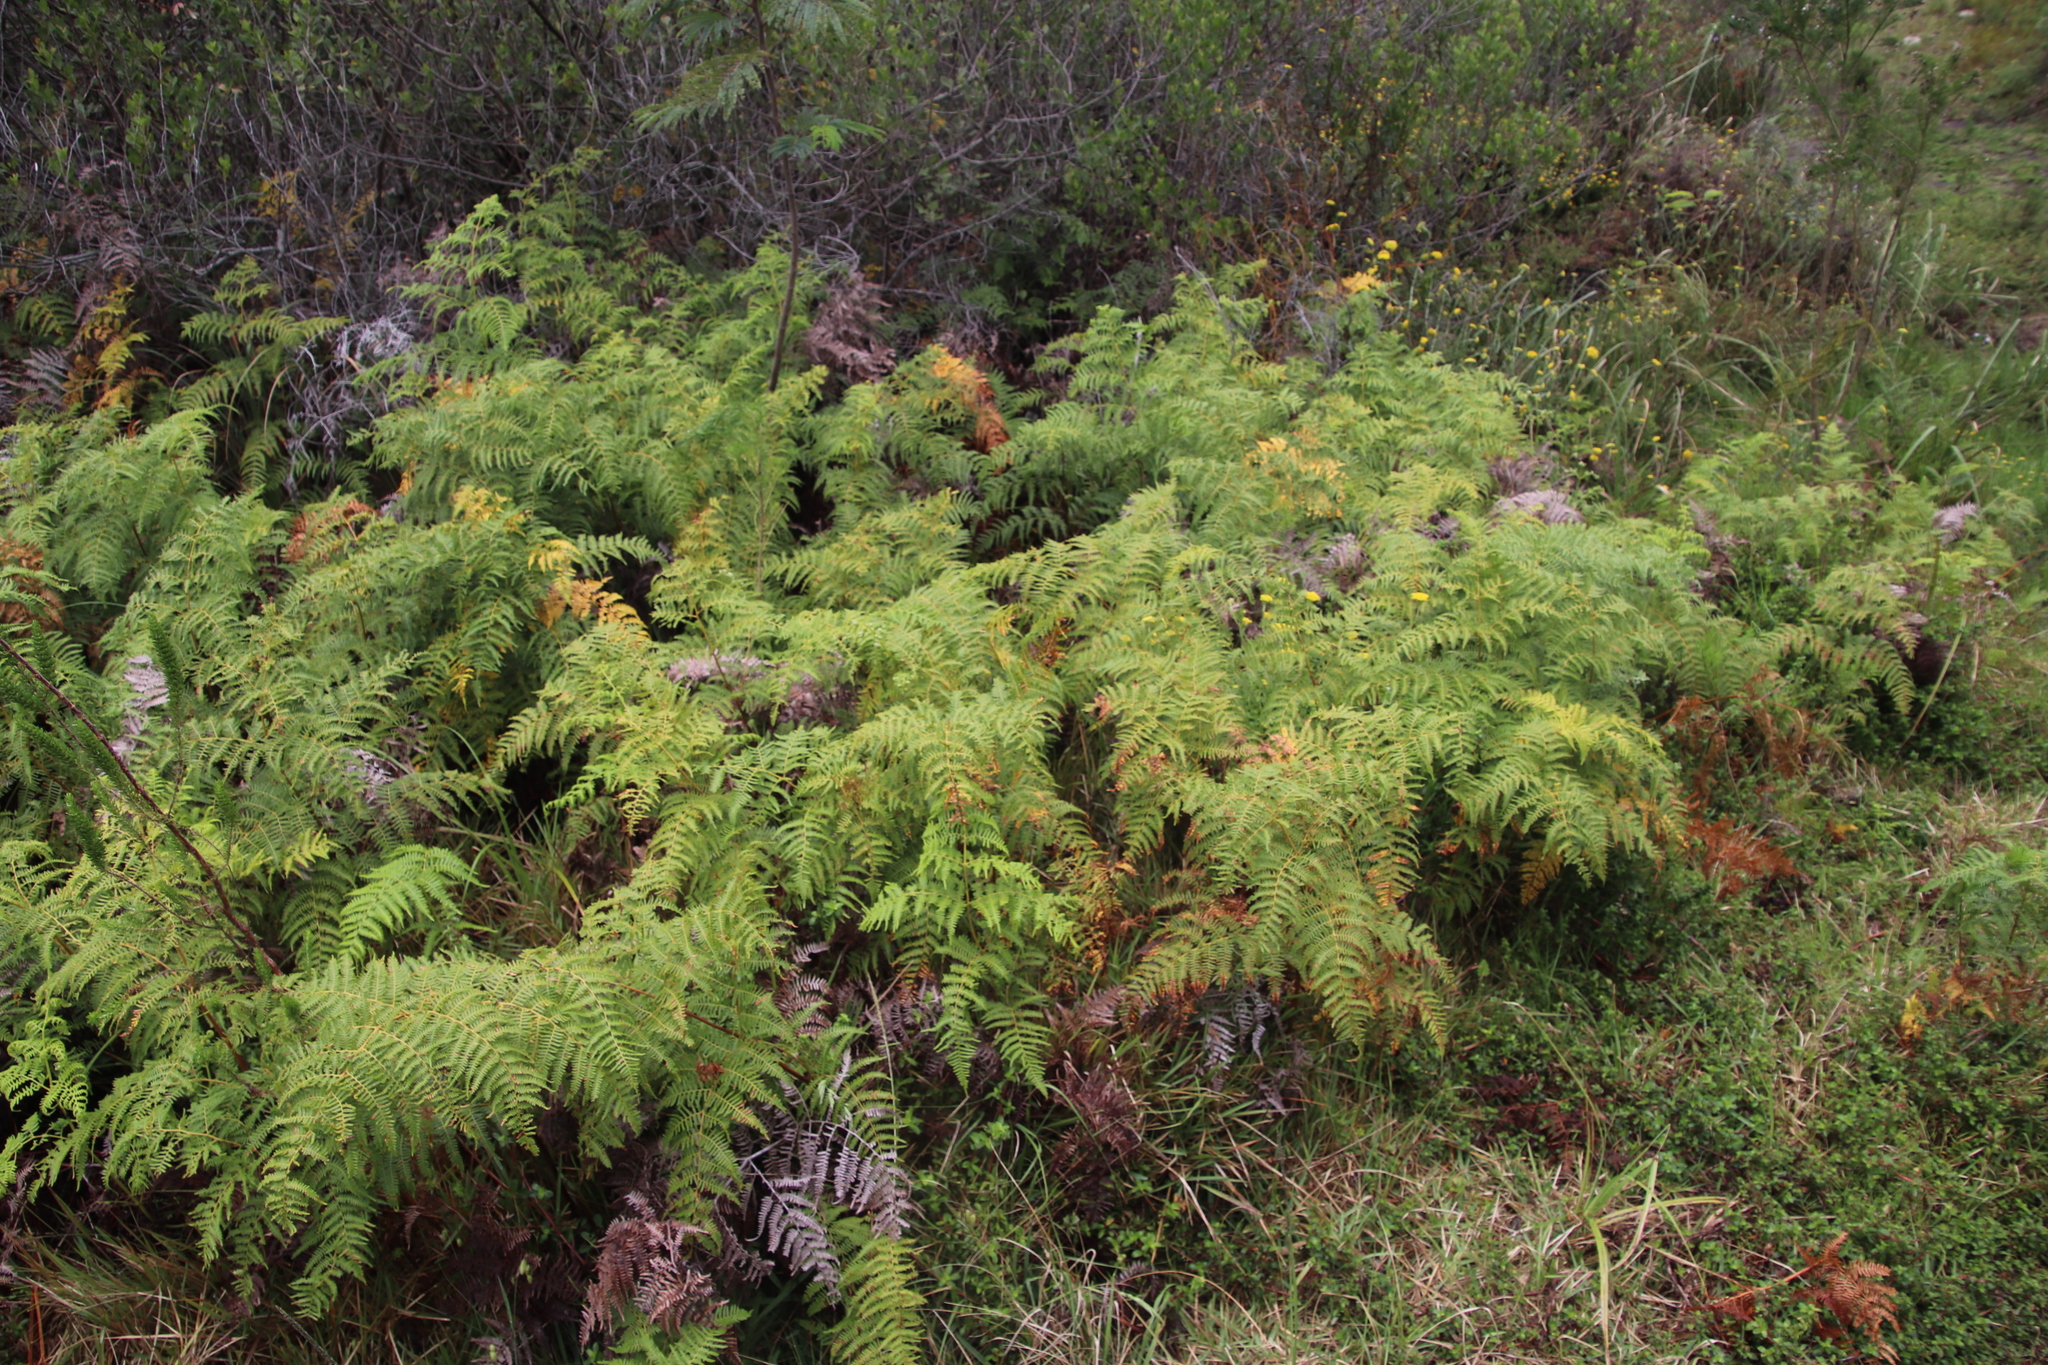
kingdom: Plantae
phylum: Tracheophyta
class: Polypodiopsida
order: Polypodiales
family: Dennstaedtiaceae
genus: Pteridium
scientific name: Pteridium aquilinum
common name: Bracken
